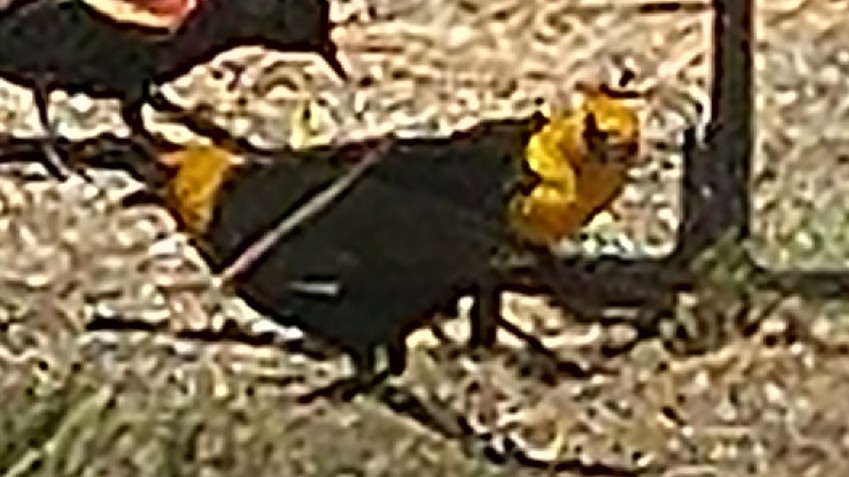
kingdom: Animalia
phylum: Chordata
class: Aves
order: Passeriformes
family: Icteridae
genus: Xanthocephalus
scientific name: Xanthocephalus xanthocephalus
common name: Yellow-headed blackbird
